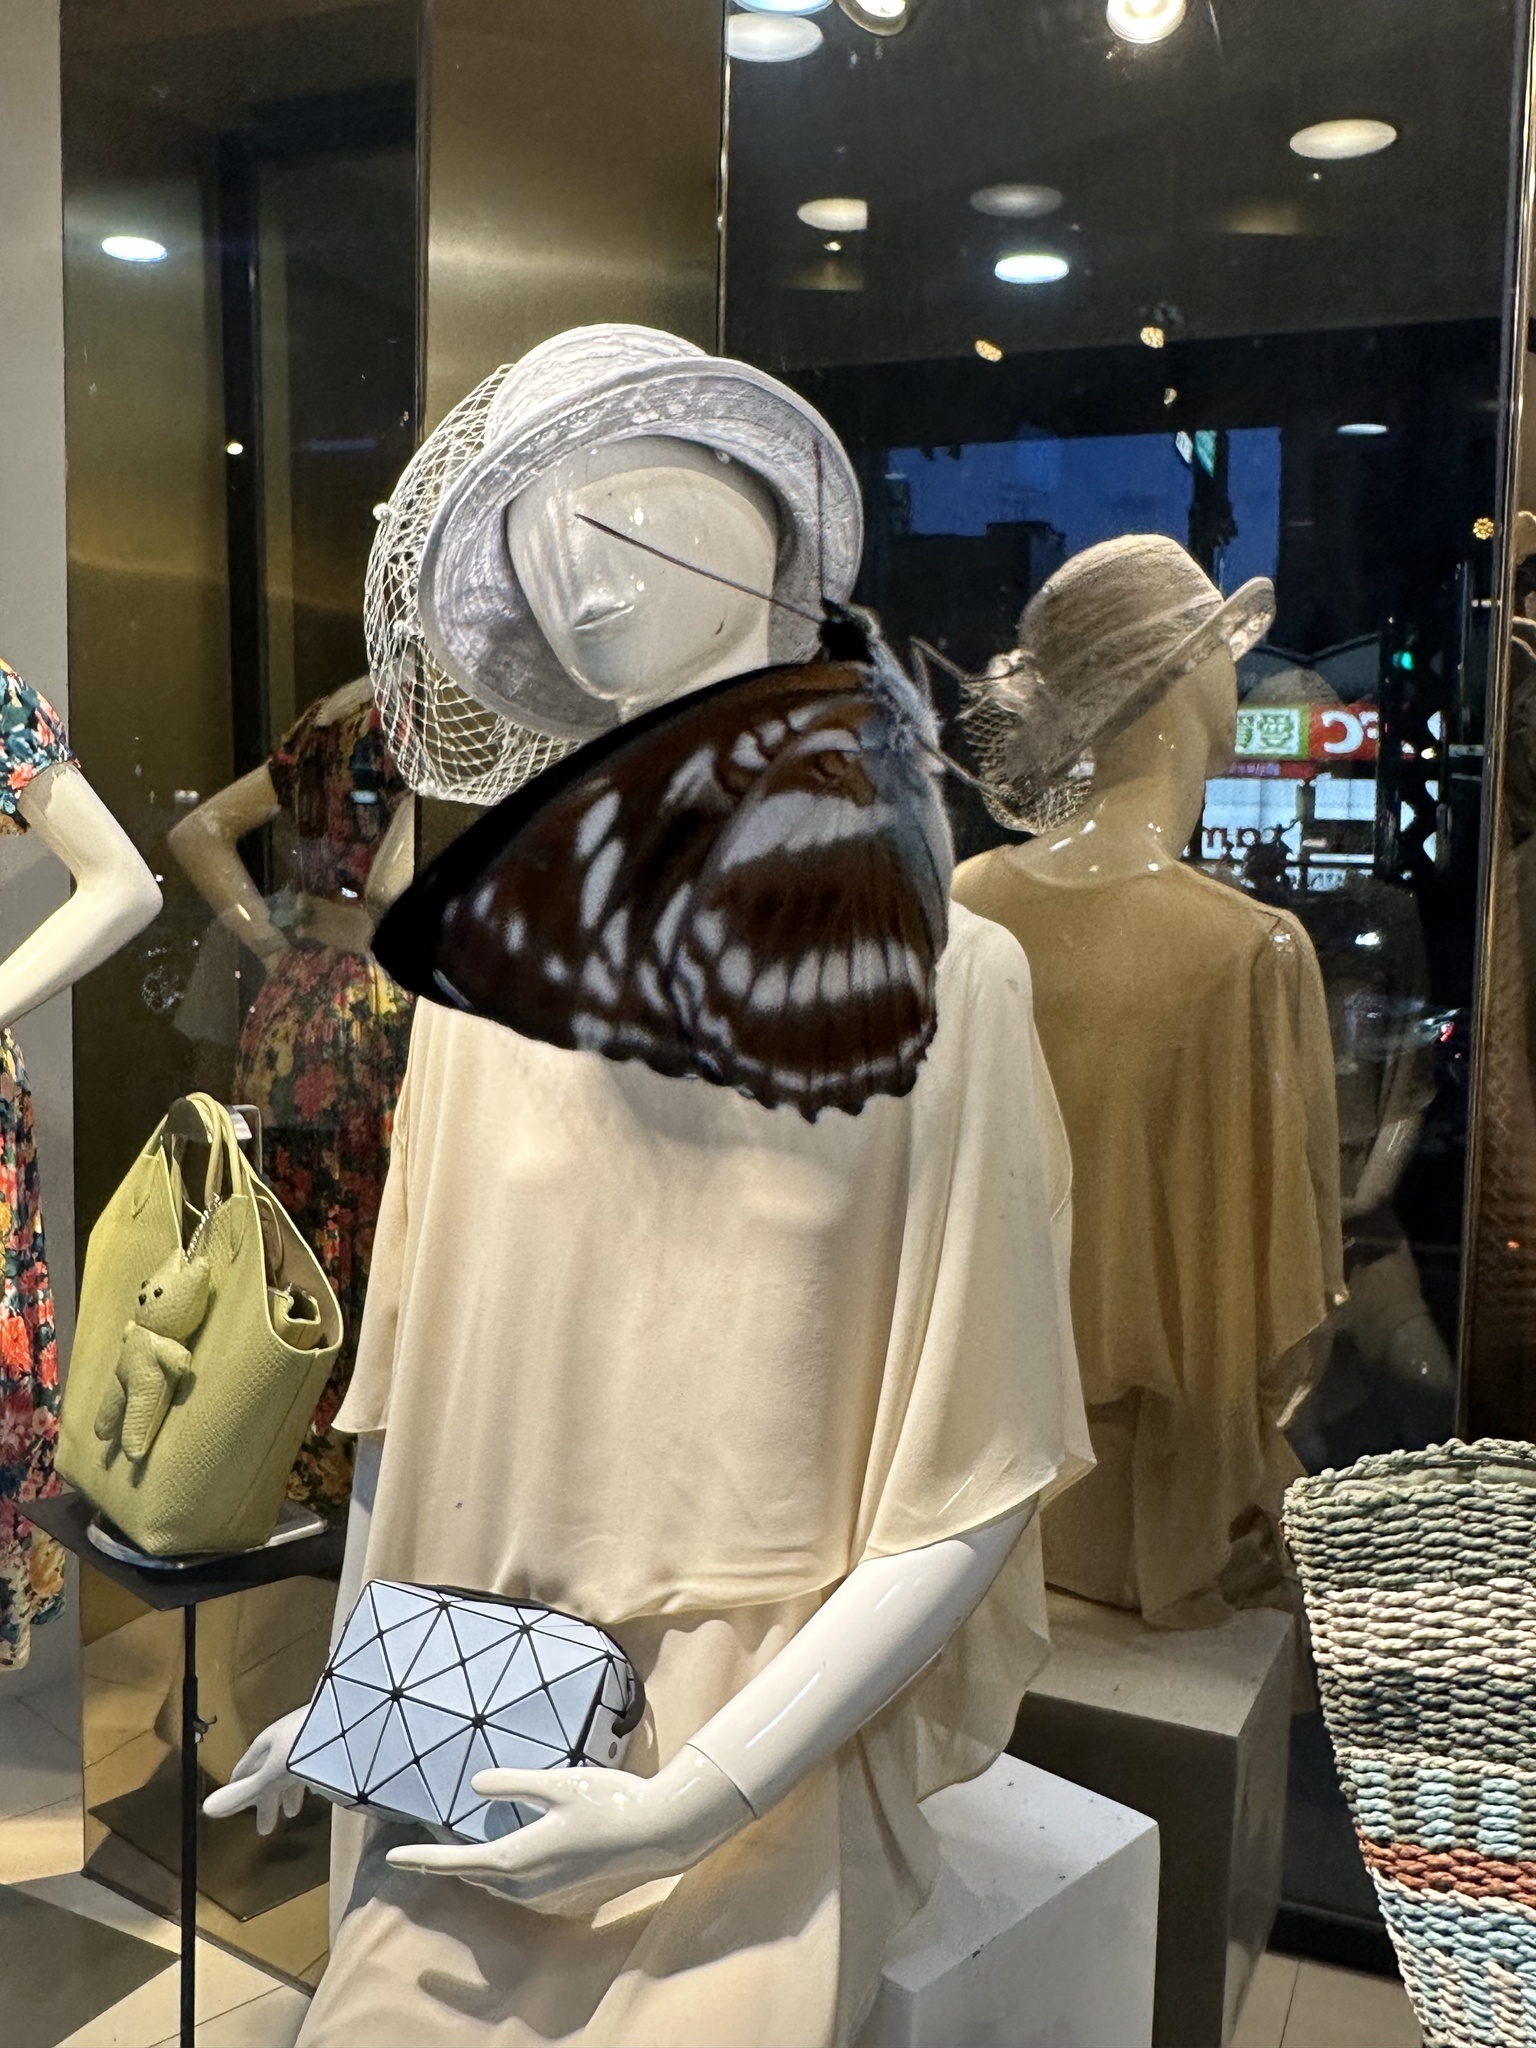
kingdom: Animalia
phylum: Arthropoda
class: Insecta
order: Lepidoptera
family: Nymphalidae
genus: Parathyma
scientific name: Parathyma selenophora
